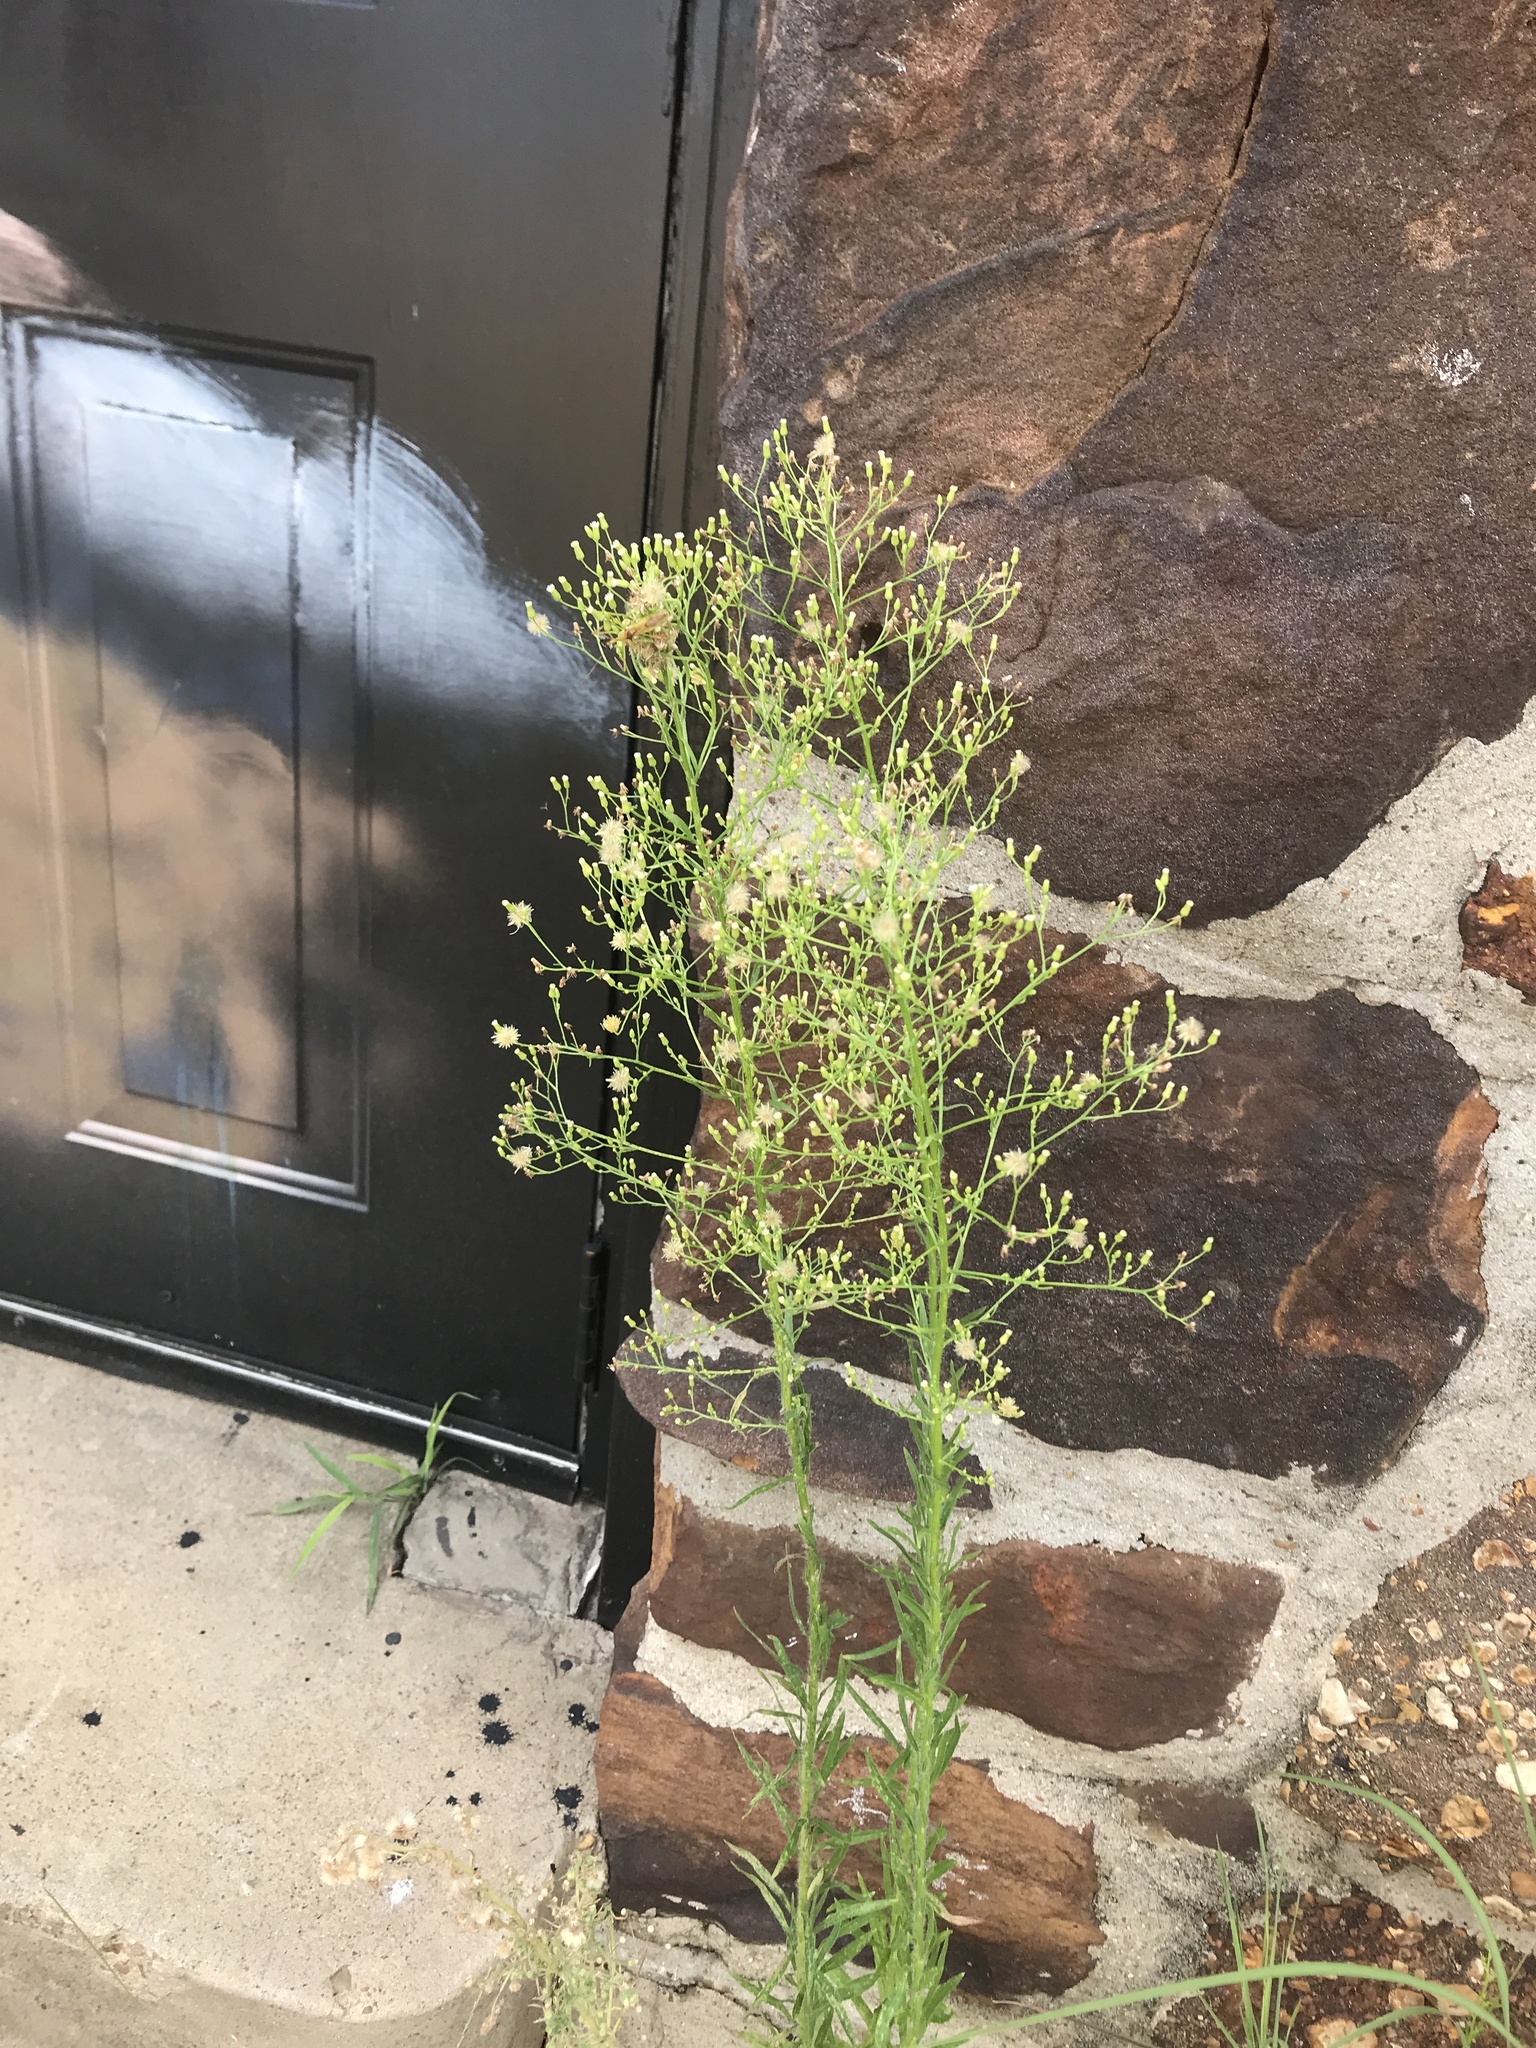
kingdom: Plantae
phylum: Tracheophyta
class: Magnoliopsida
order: Asterales
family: Asteraceae
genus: Erigeron
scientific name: Erigeron canadensis
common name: Canadian fleabane
